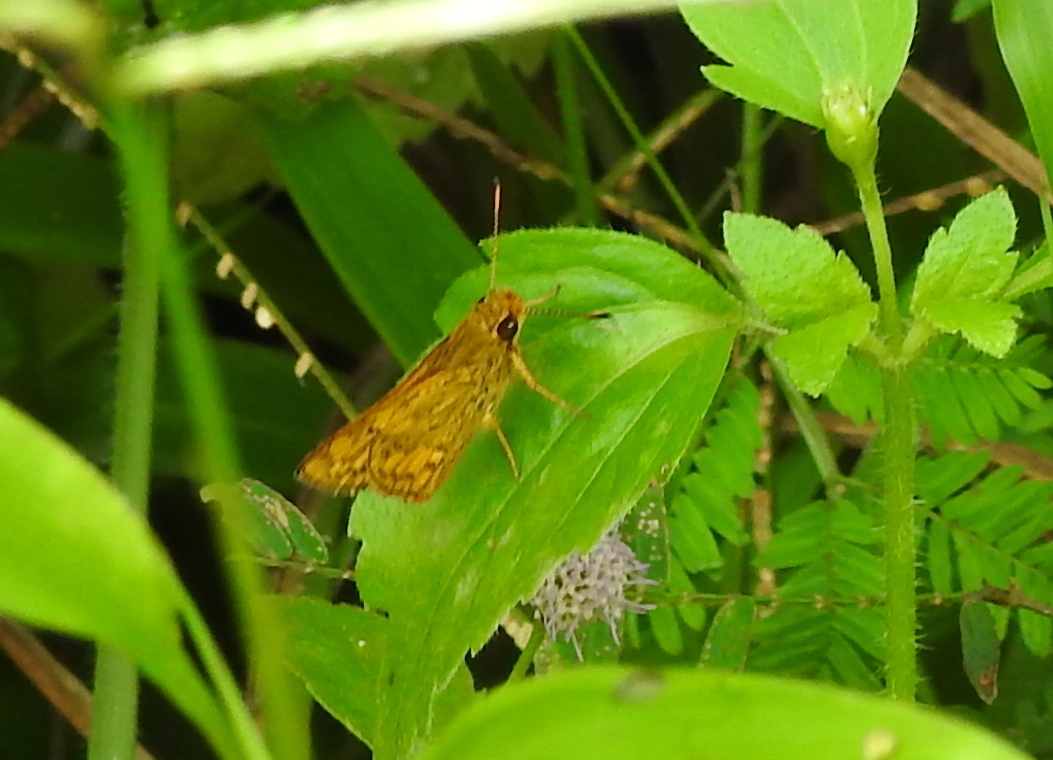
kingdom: Animalia
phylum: Arthropoda
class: Insecta
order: Lepidoptera
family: Hesperiidae
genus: Potanthus
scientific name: Potanthus omaha
